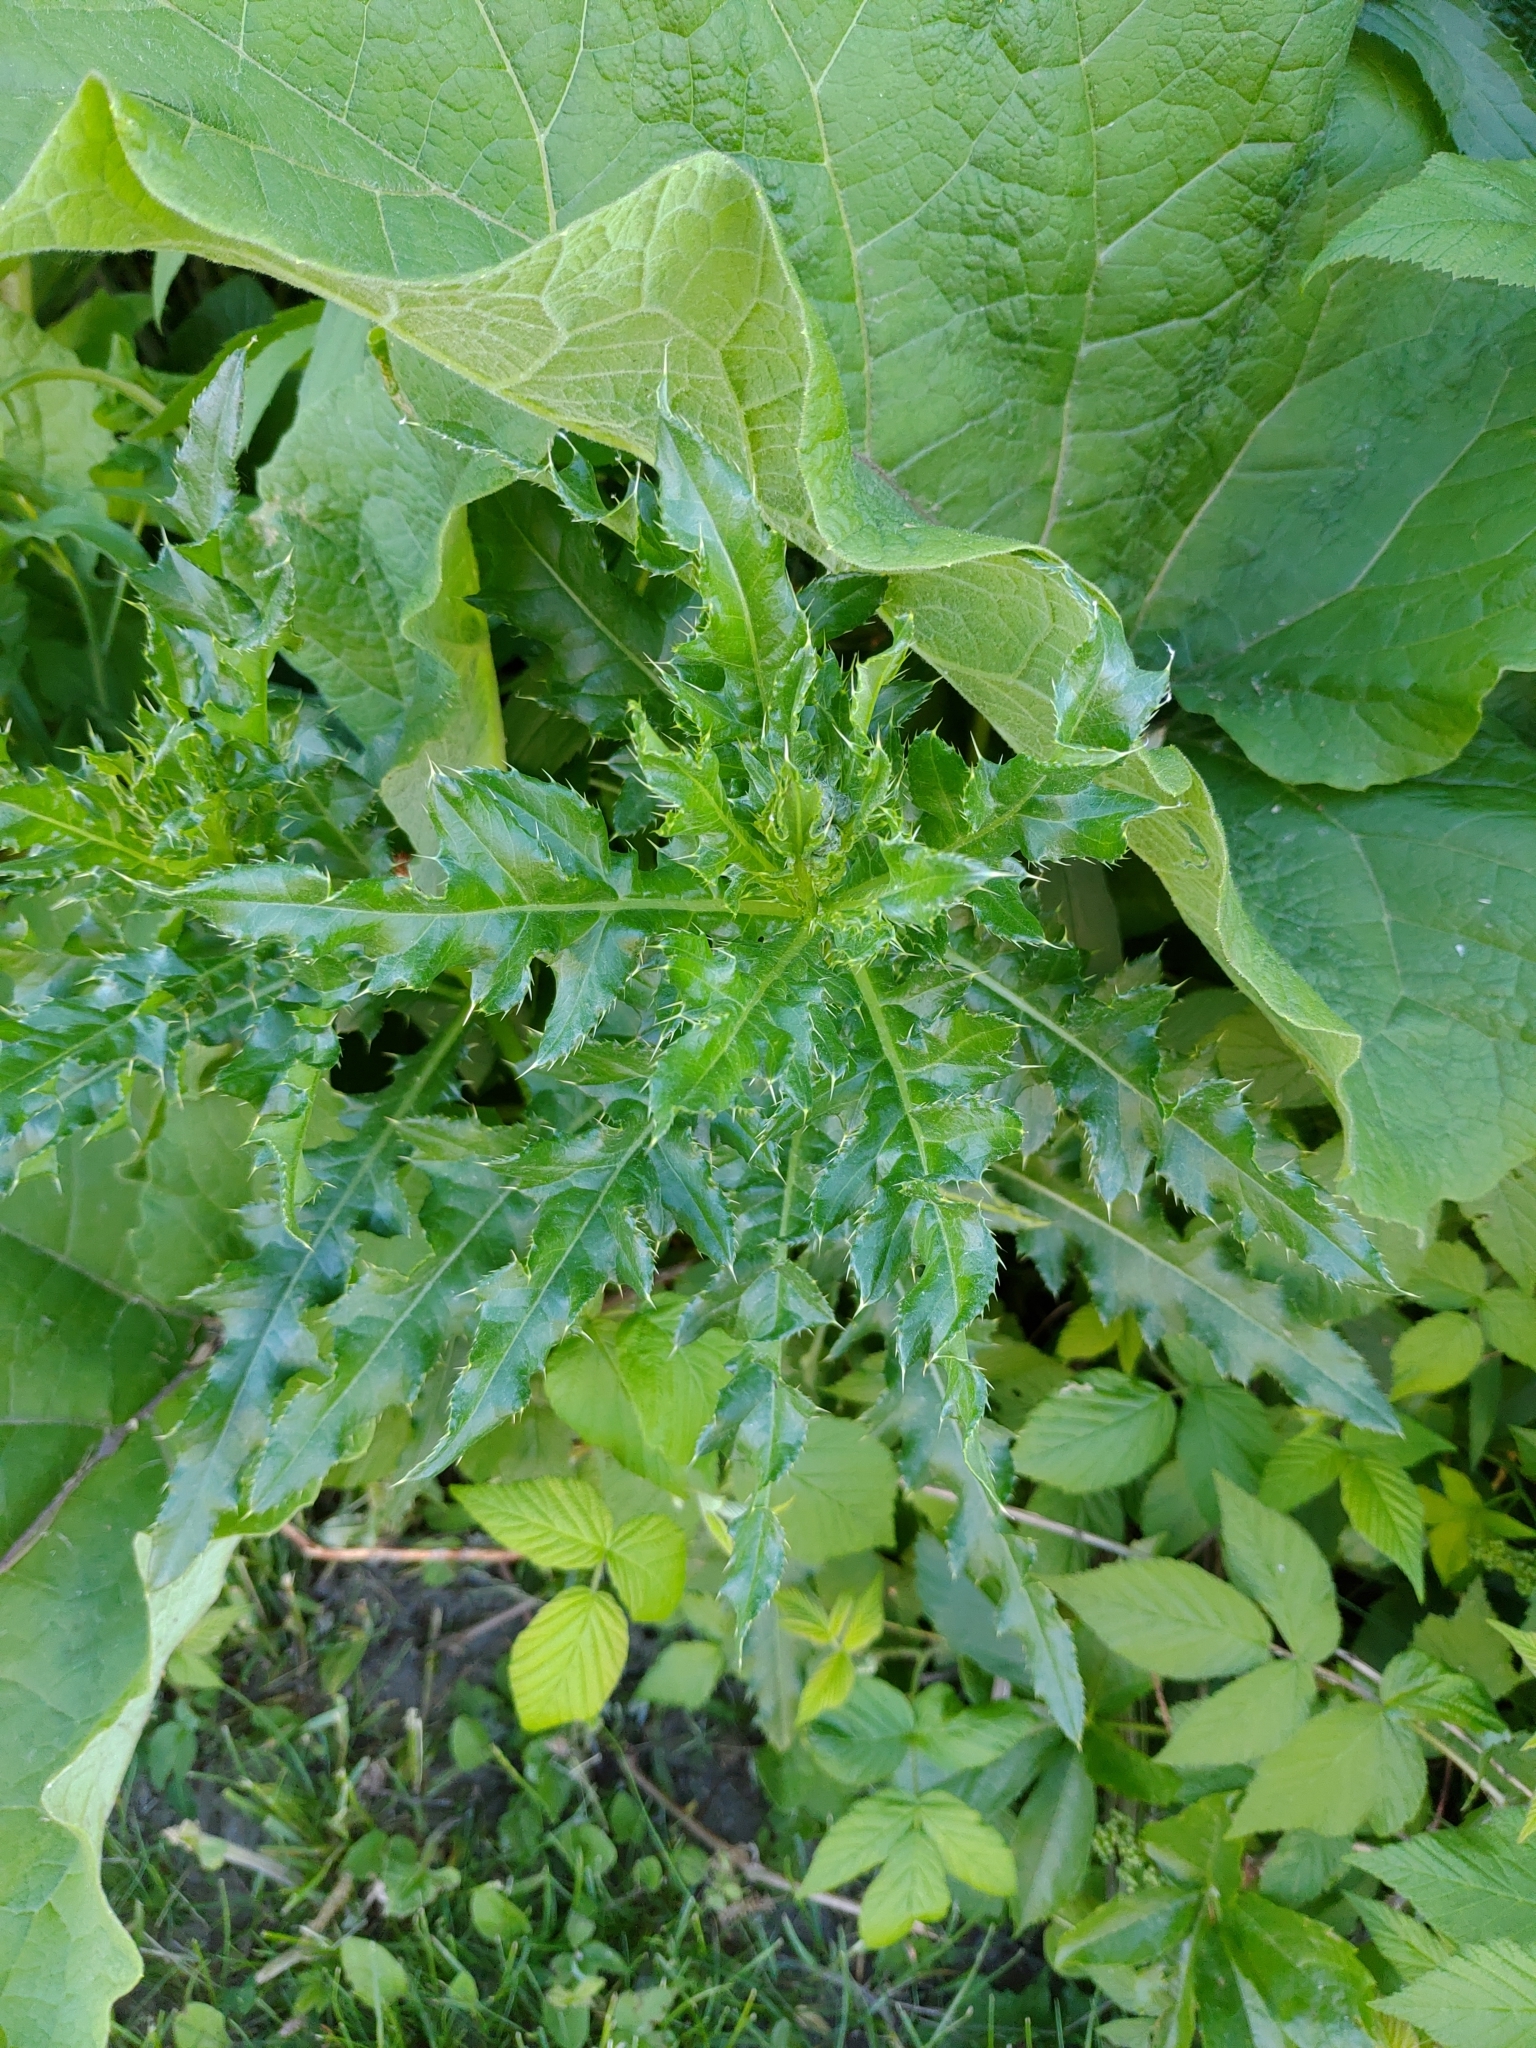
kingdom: Plantae
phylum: Tracheophyta
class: Magnoliopsida
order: Asterales
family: Asteraceae
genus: Cirsium
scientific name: Cirsium arvense
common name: Creeping thistle
